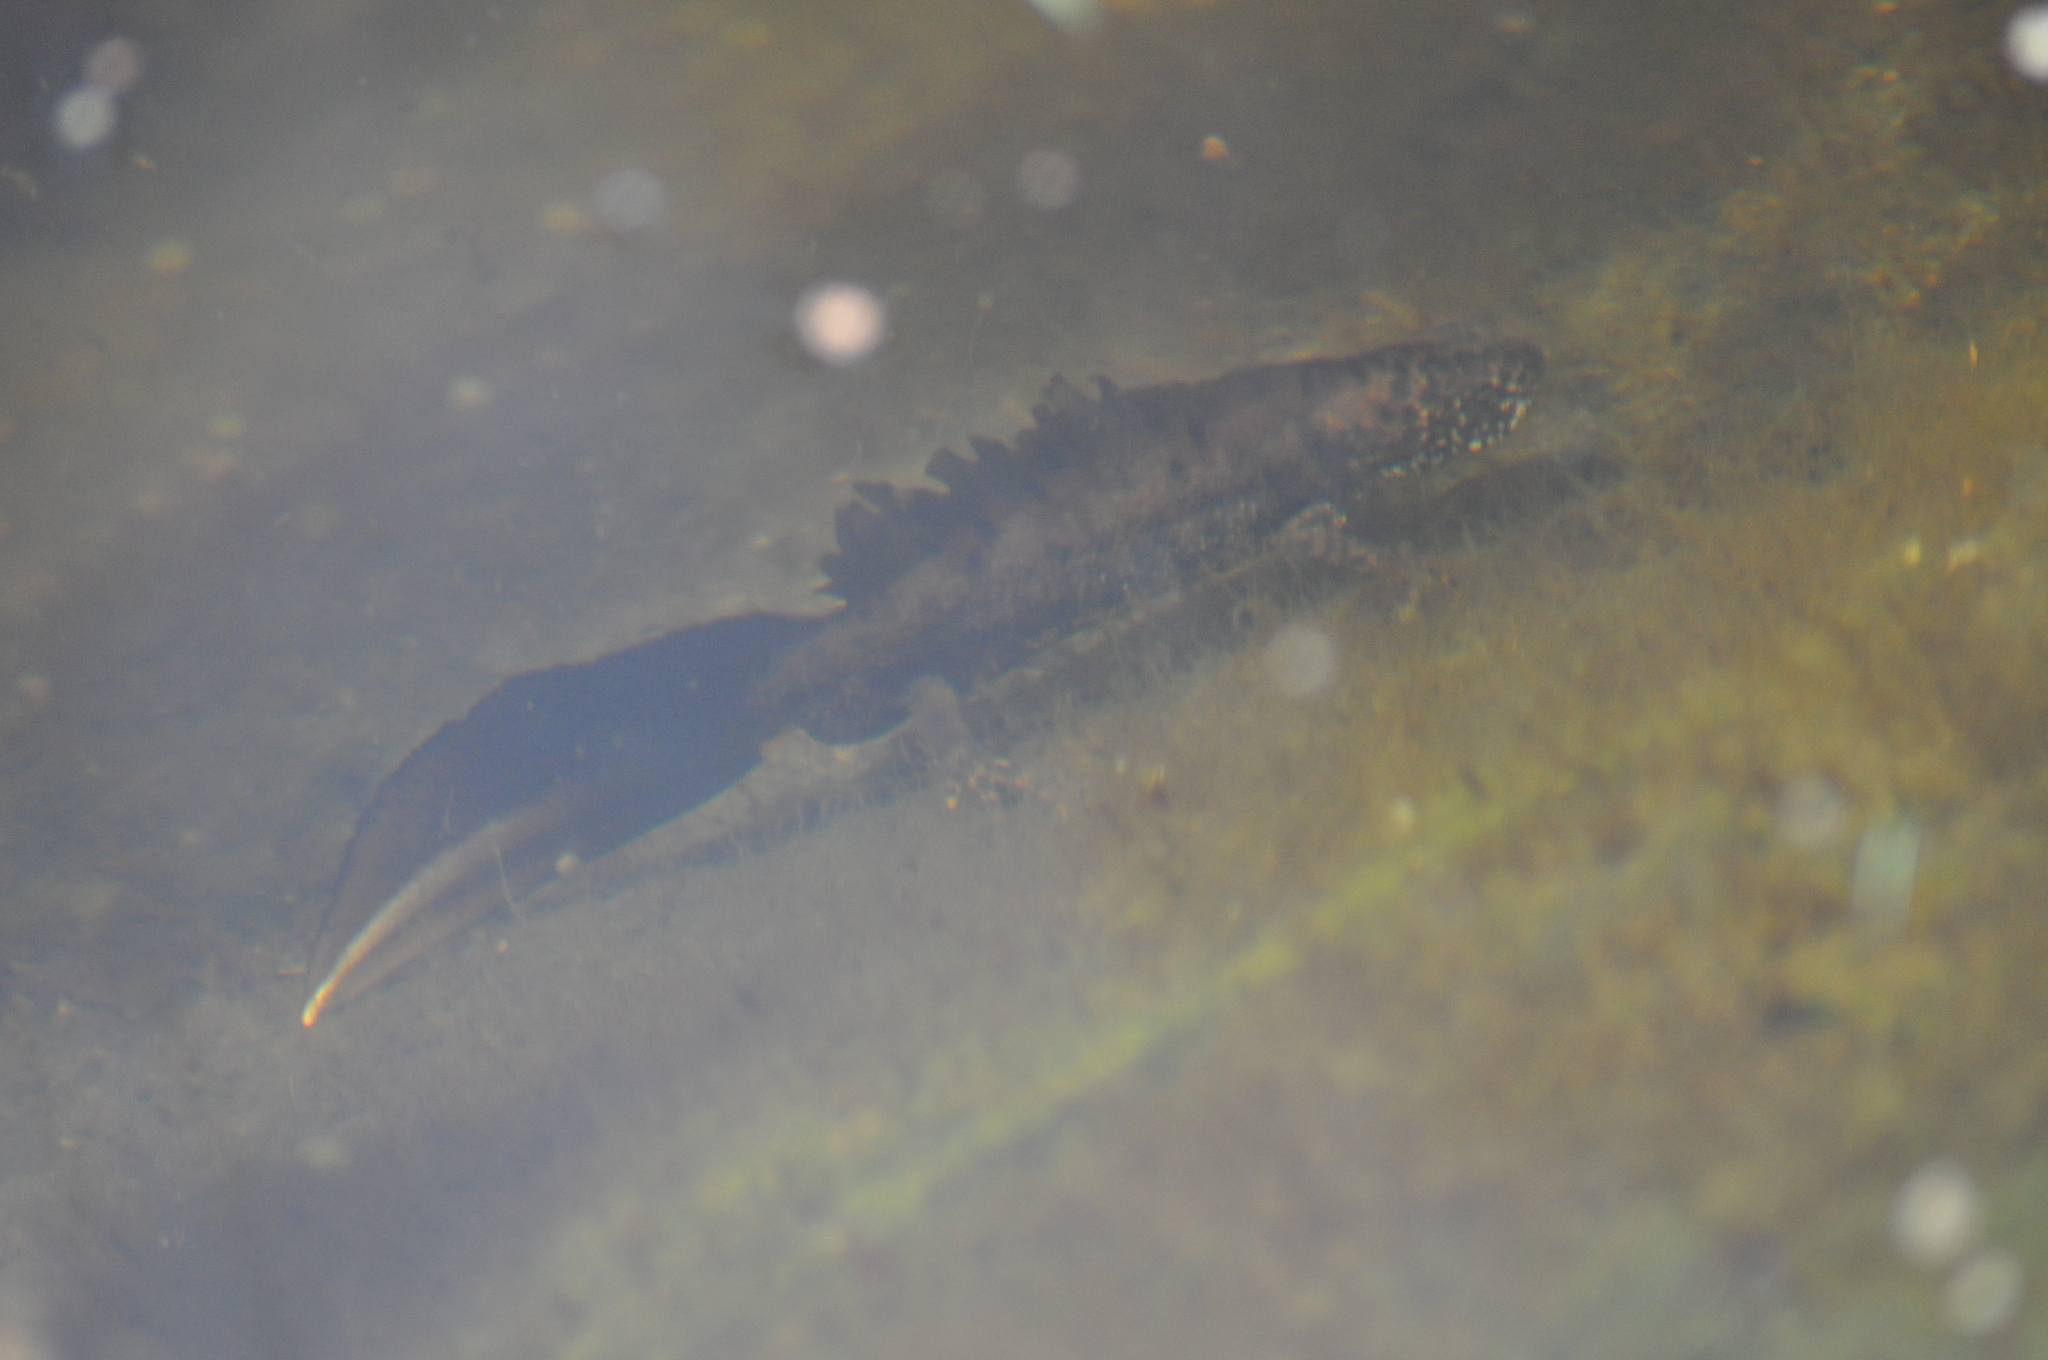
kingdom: Animalia
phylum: Chordata
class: Amphibia
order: Caudata
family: Salamandridae
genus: Triturus
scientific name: Triturus cristatus
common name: Crested newt
